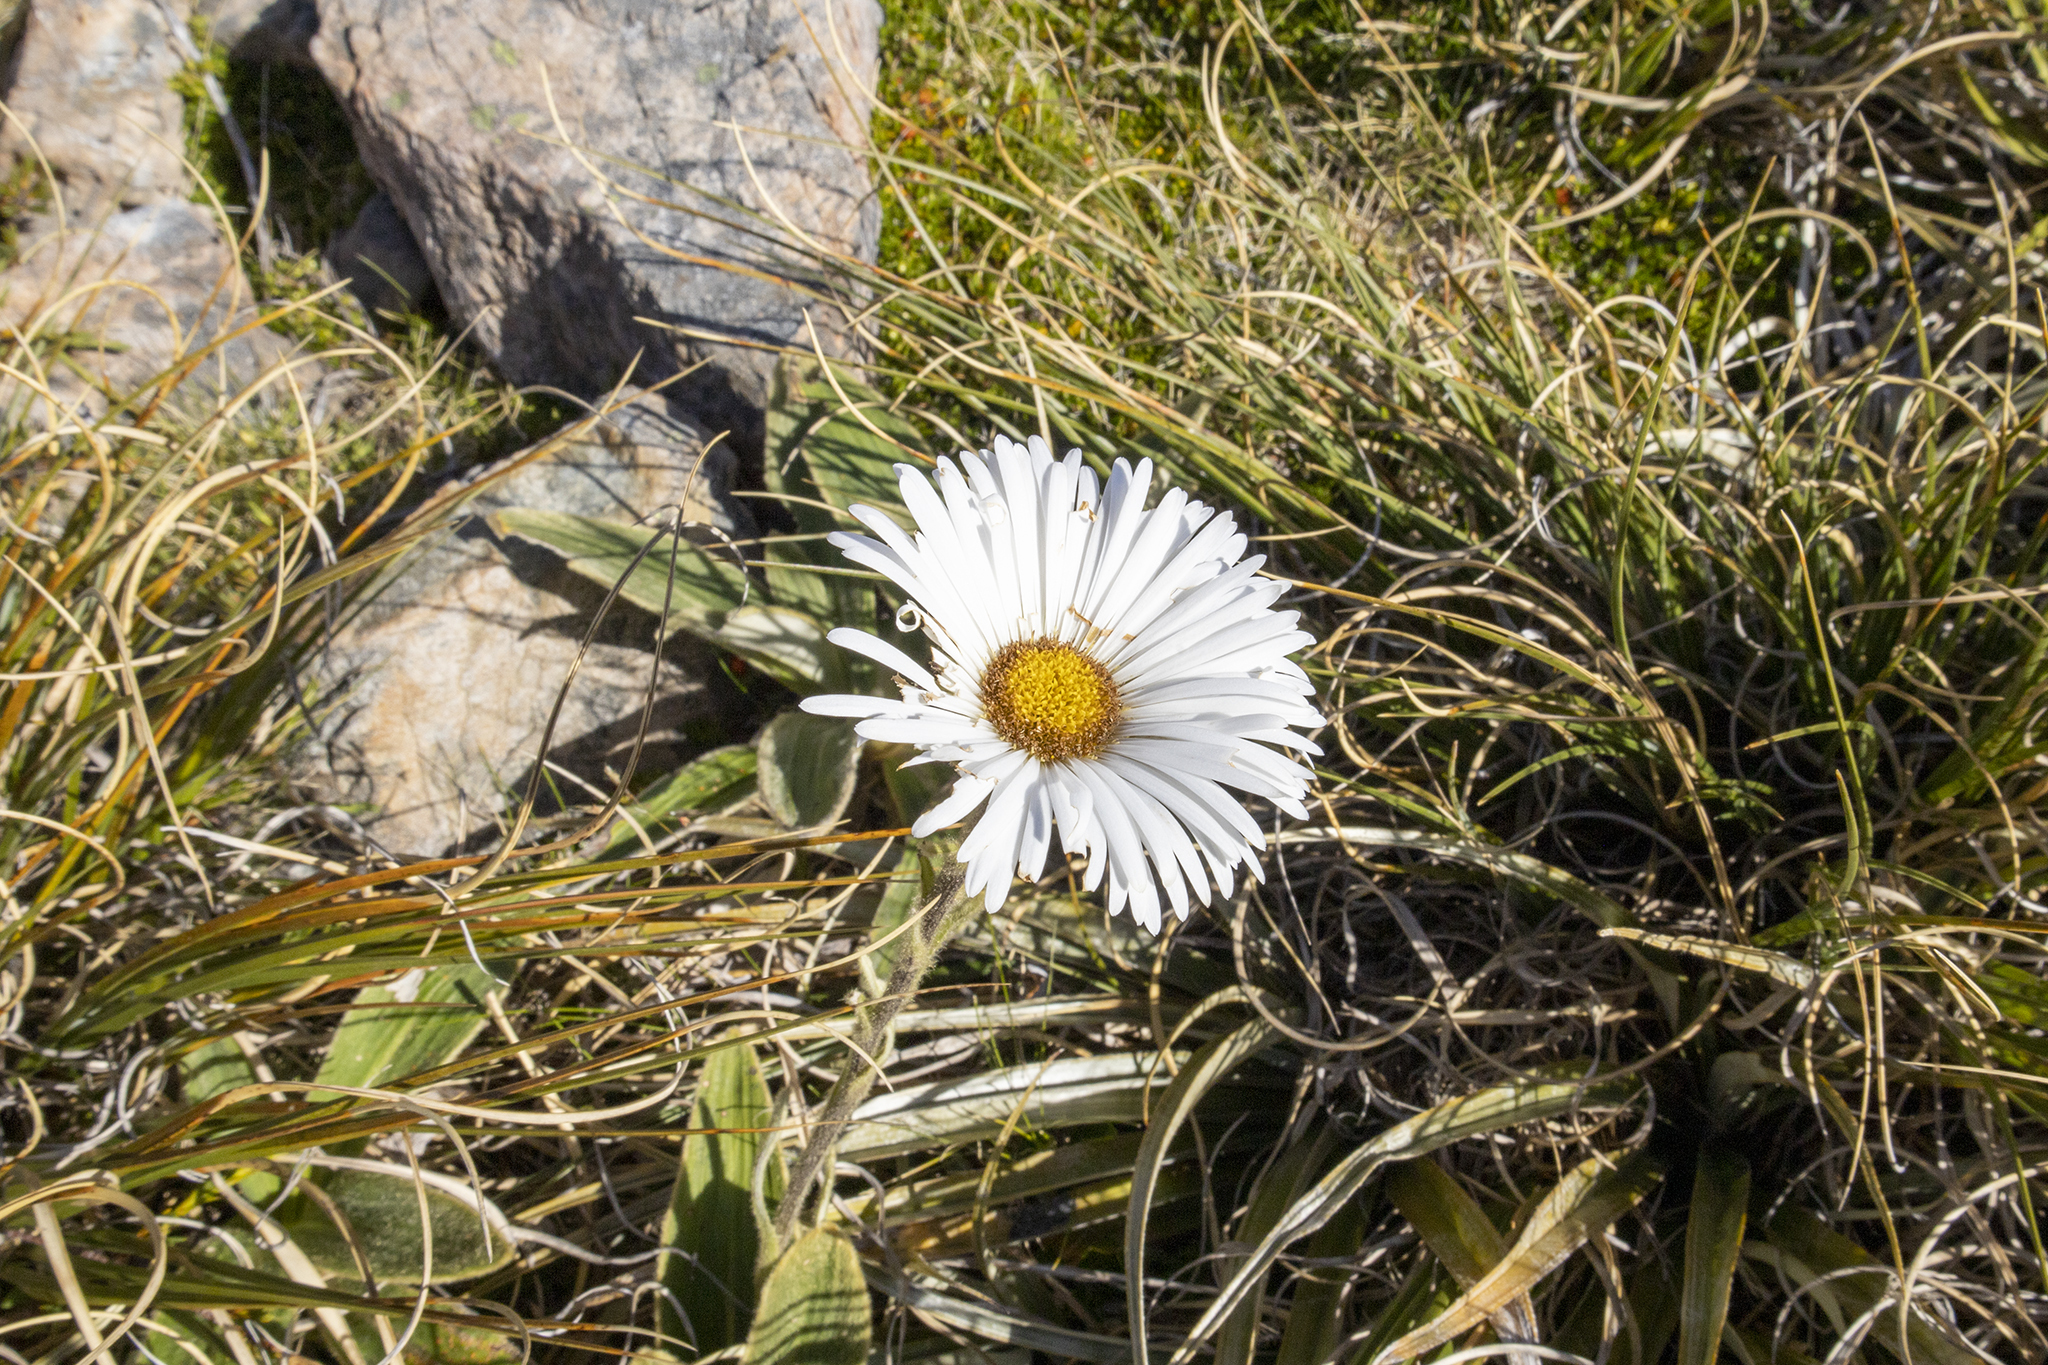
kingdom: Plantae
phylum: Tracheophyta
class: Magnoliopsida
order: Asterales
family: Asteraceae
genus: Celmisia
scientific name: Celmisia verbascifolia
